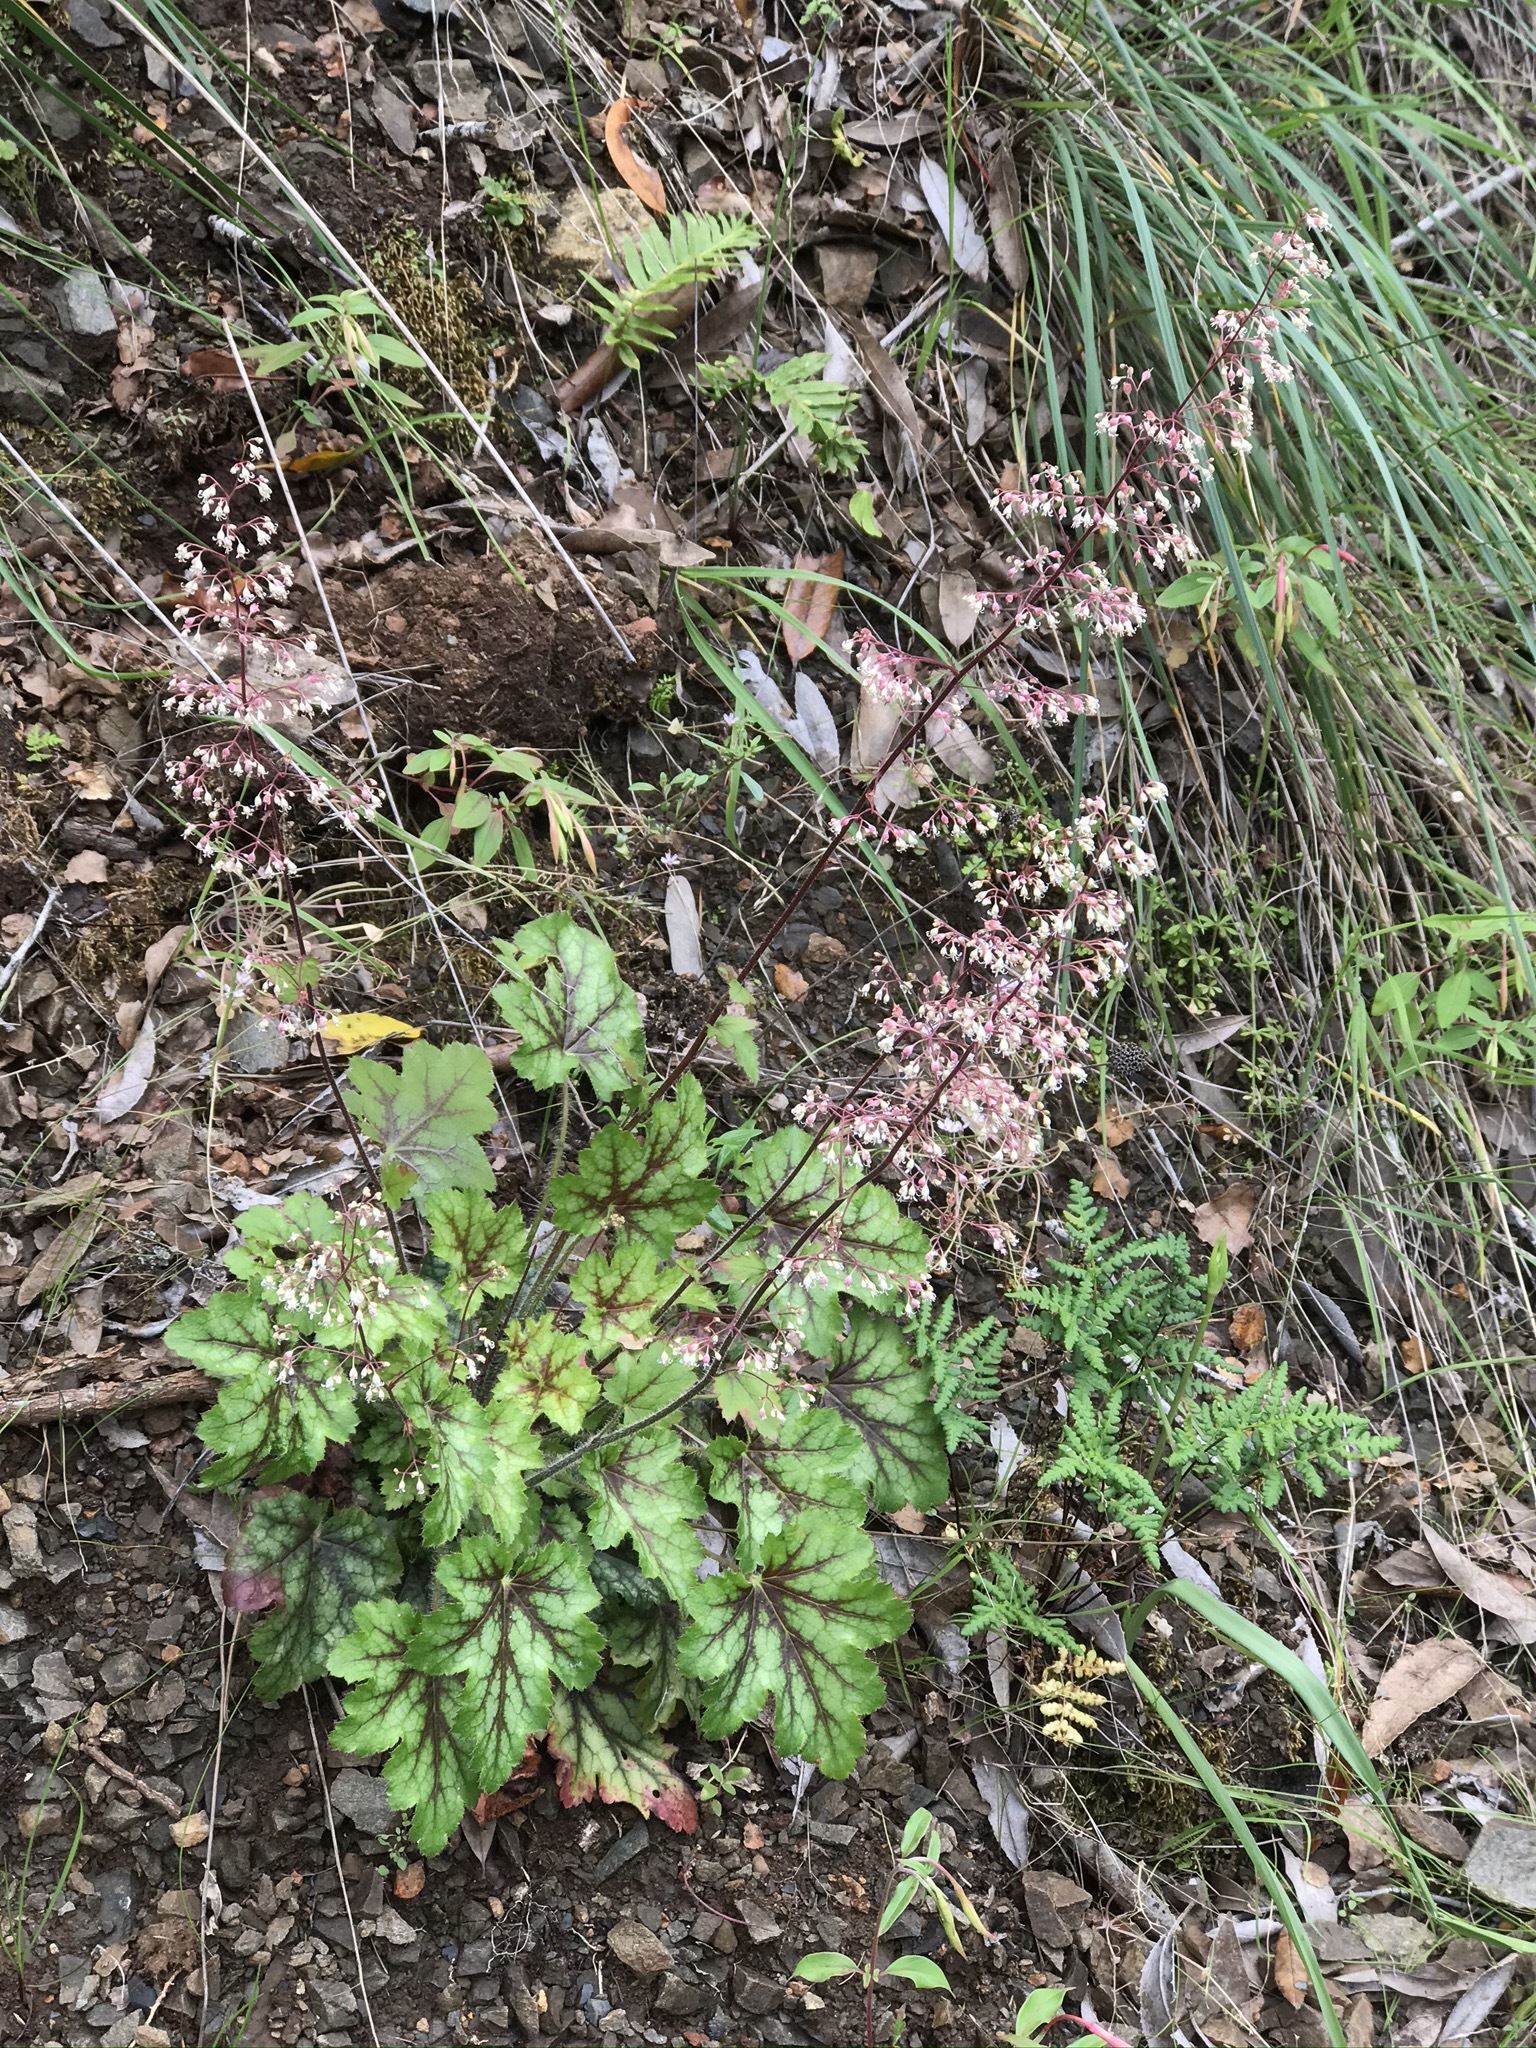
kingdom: Plantae
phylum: Tracheophyta
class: Magnoliopsida
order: Saxifragales
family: Saxifragaceae
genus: Heuchera
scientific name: Heuchera micrantha
